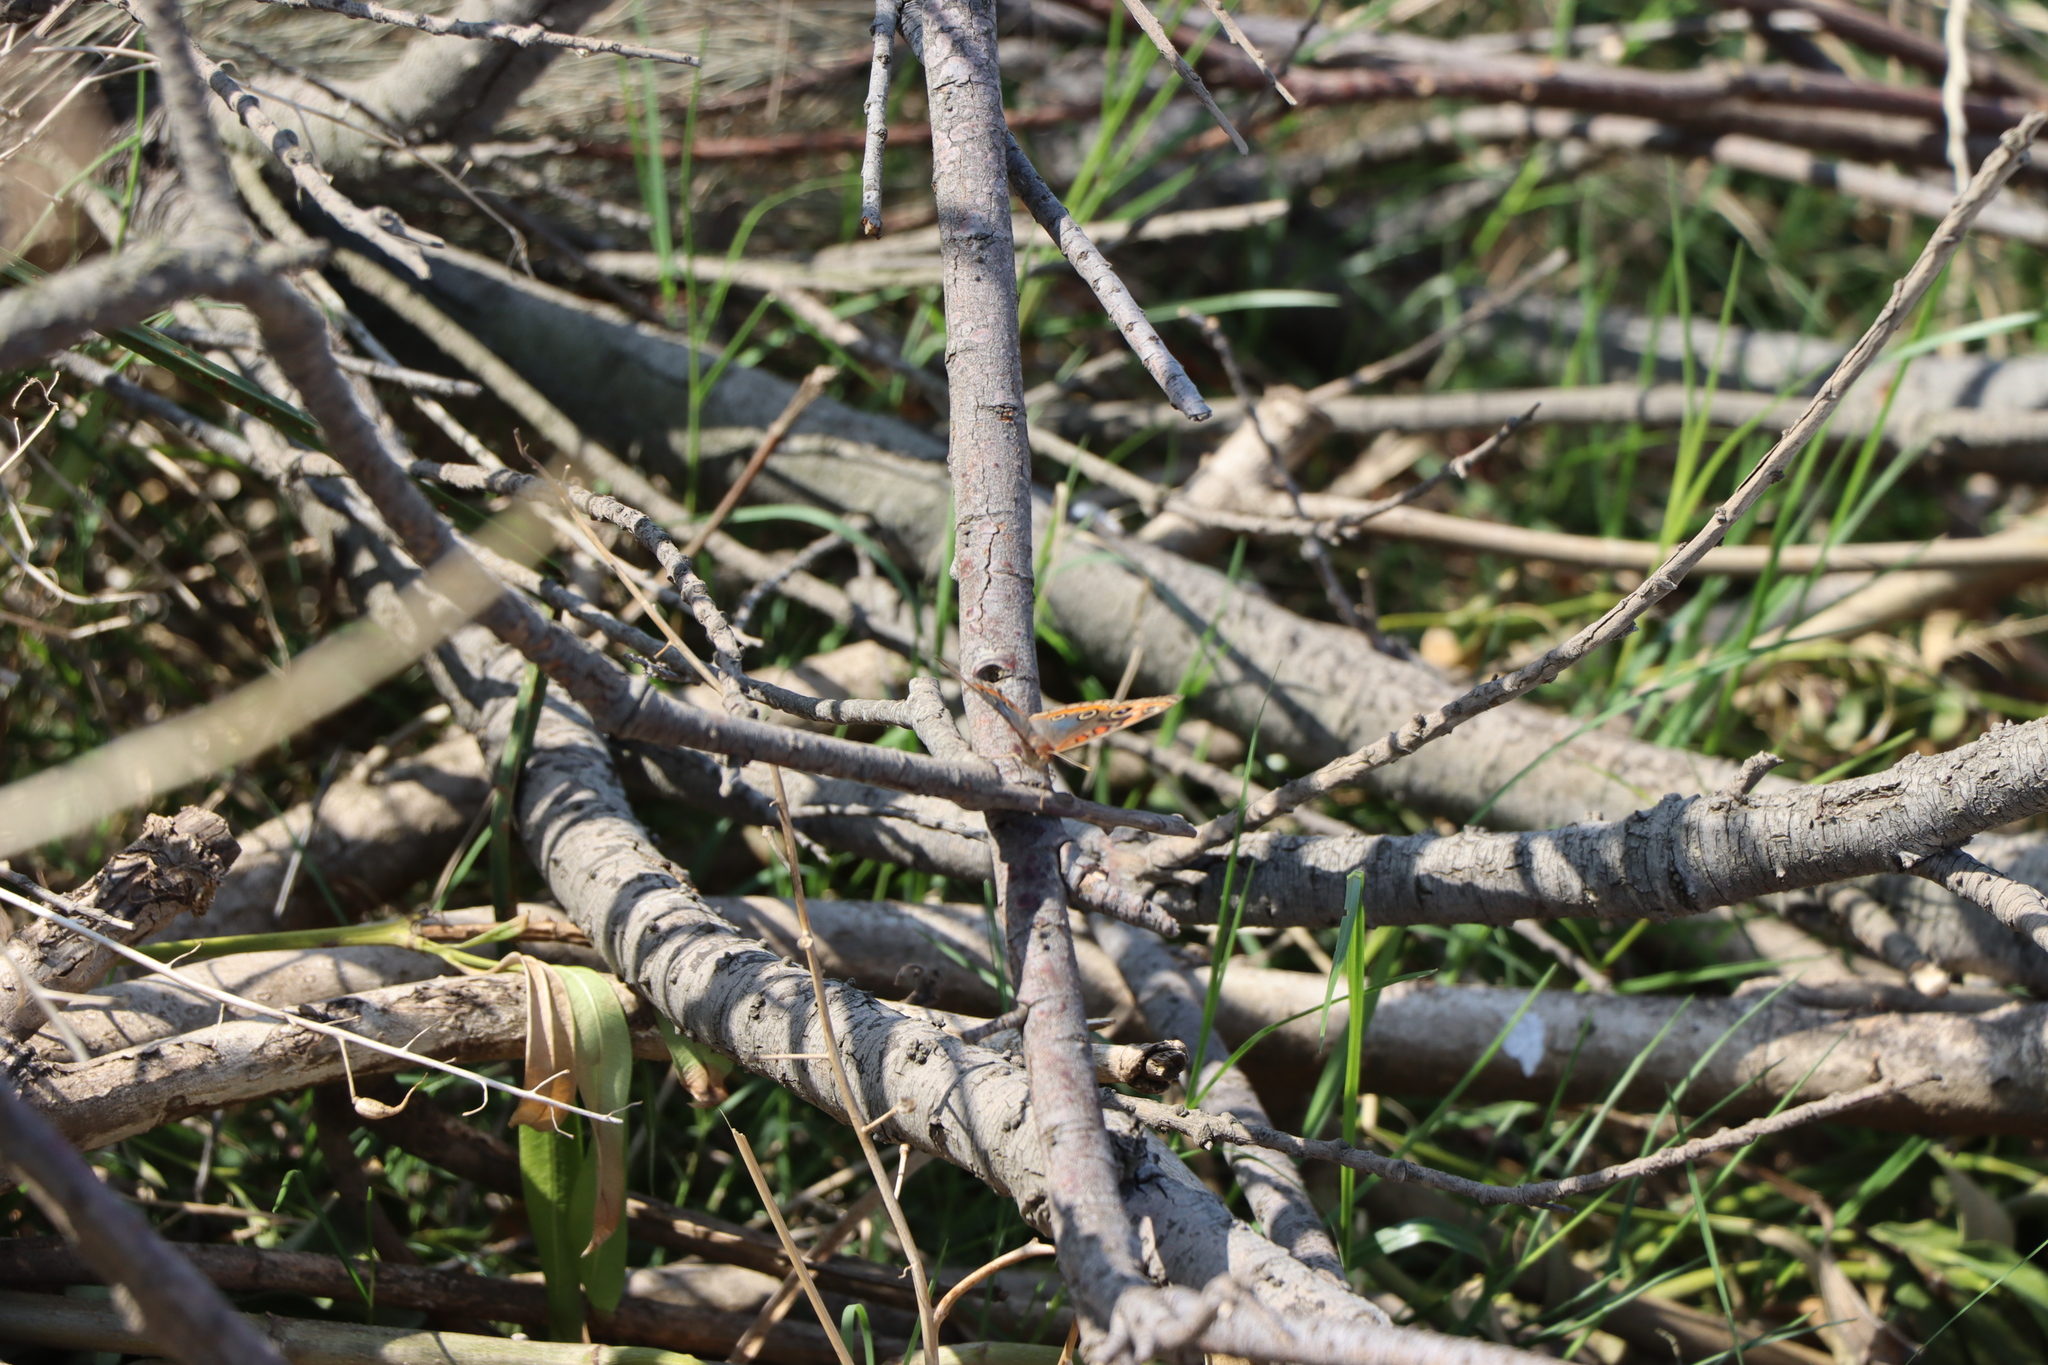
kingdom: Animalia
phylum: Arthropoda
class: Insecta
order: Lepidoptera
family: Nymphalidae
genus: Junonia
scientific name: Junonia lavinia
